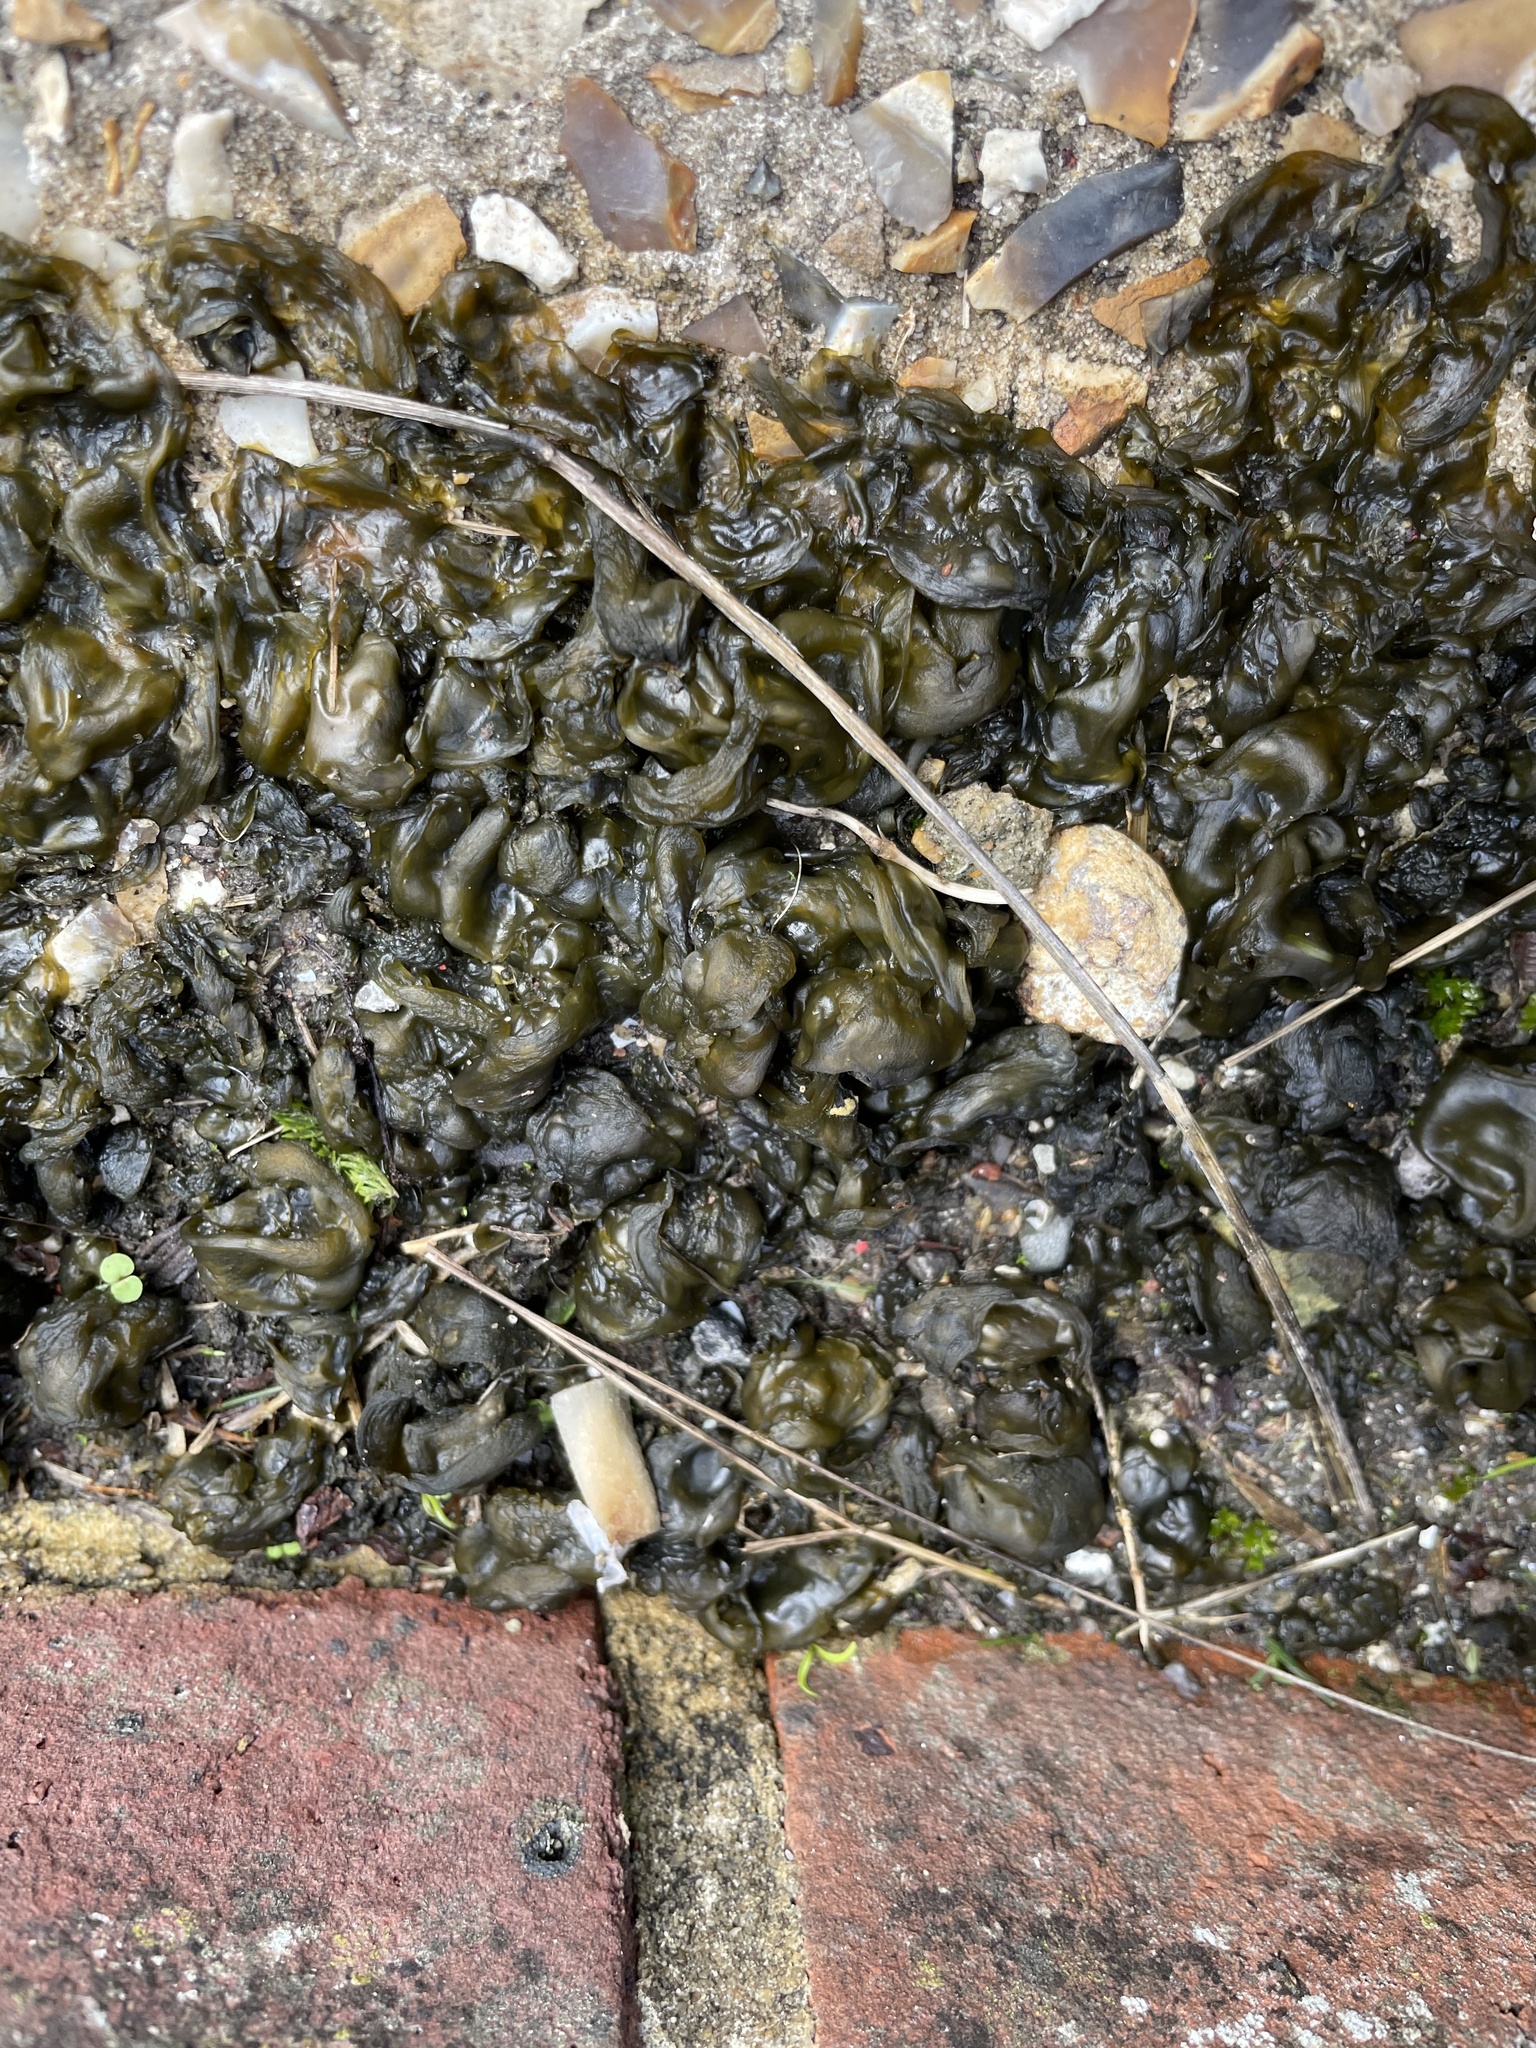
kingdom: Bacteria
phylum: Cyanobacteria
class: Cyanobacteriia
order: Cyanobacteriales
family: Nostocaceae
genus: Nostoc
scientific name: Nostoc commune
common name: Star jelly
